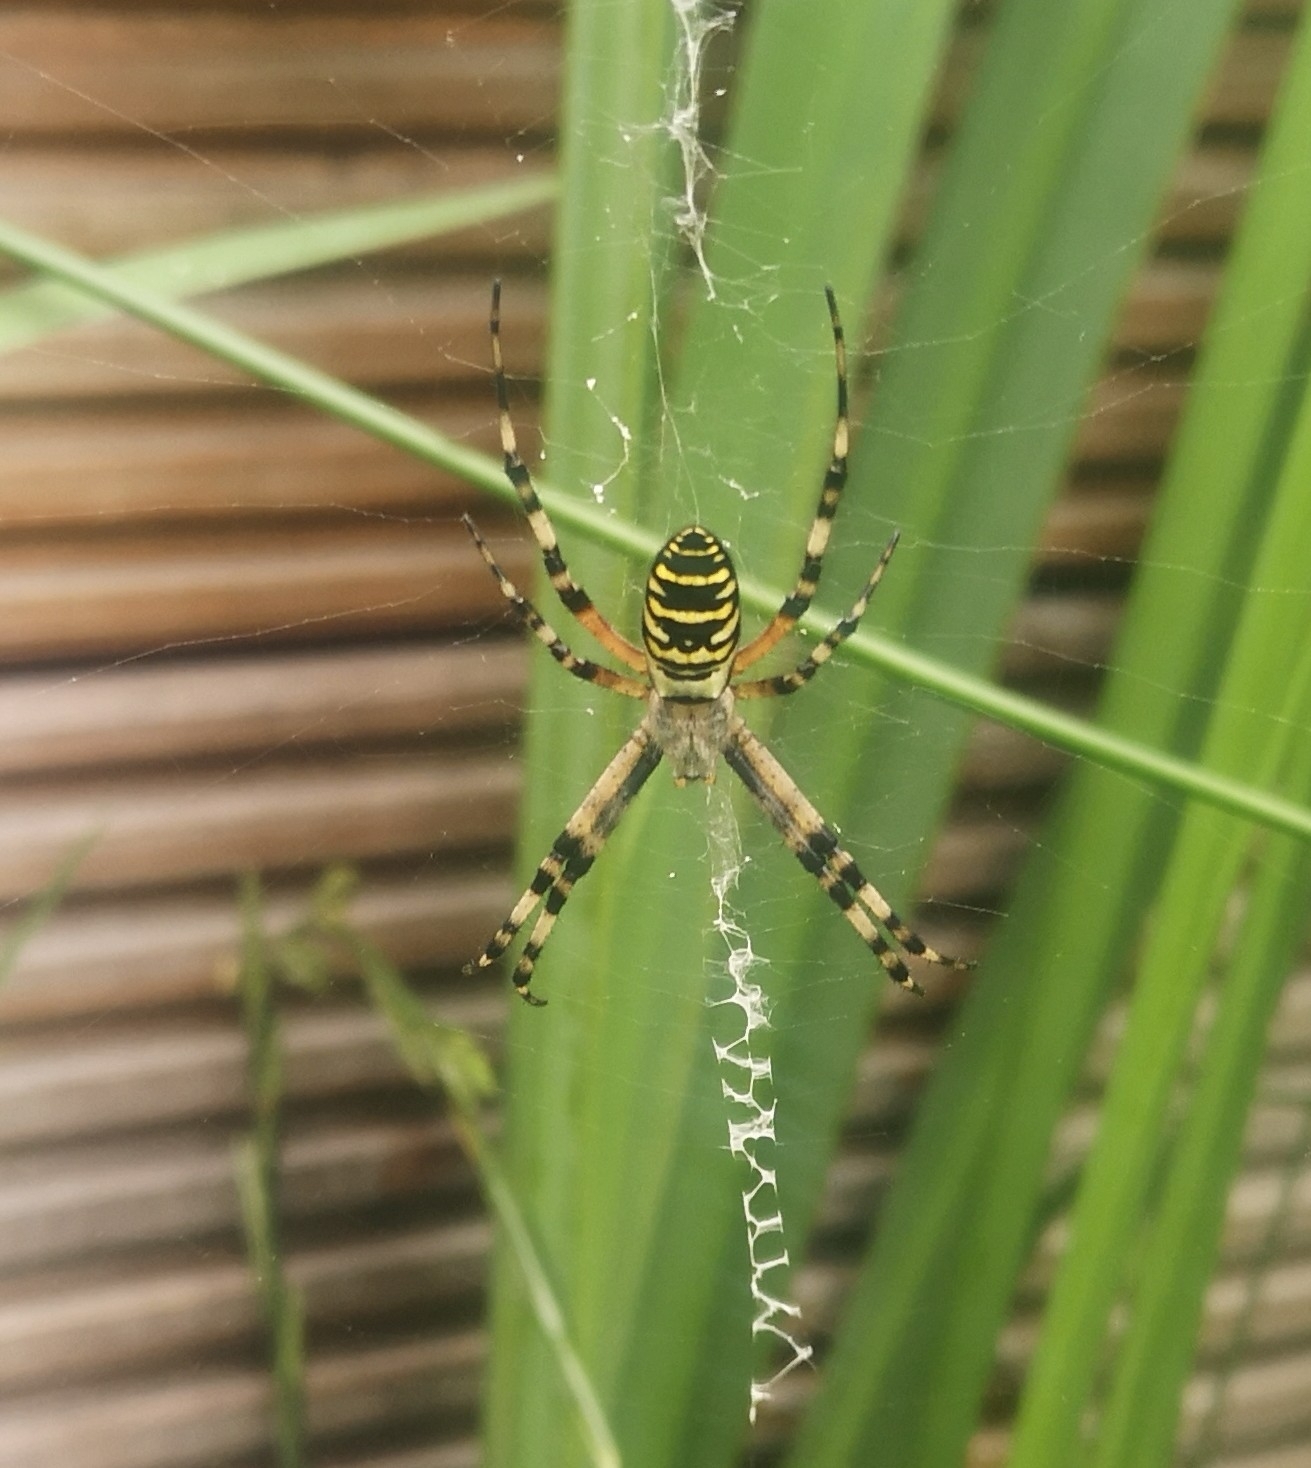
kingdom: Animalia
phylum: Arthropoda
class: Arachnida
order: Araneae
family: Araneidae
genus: Argiope
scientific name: Argiope bruennichi
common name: Wasp spider
